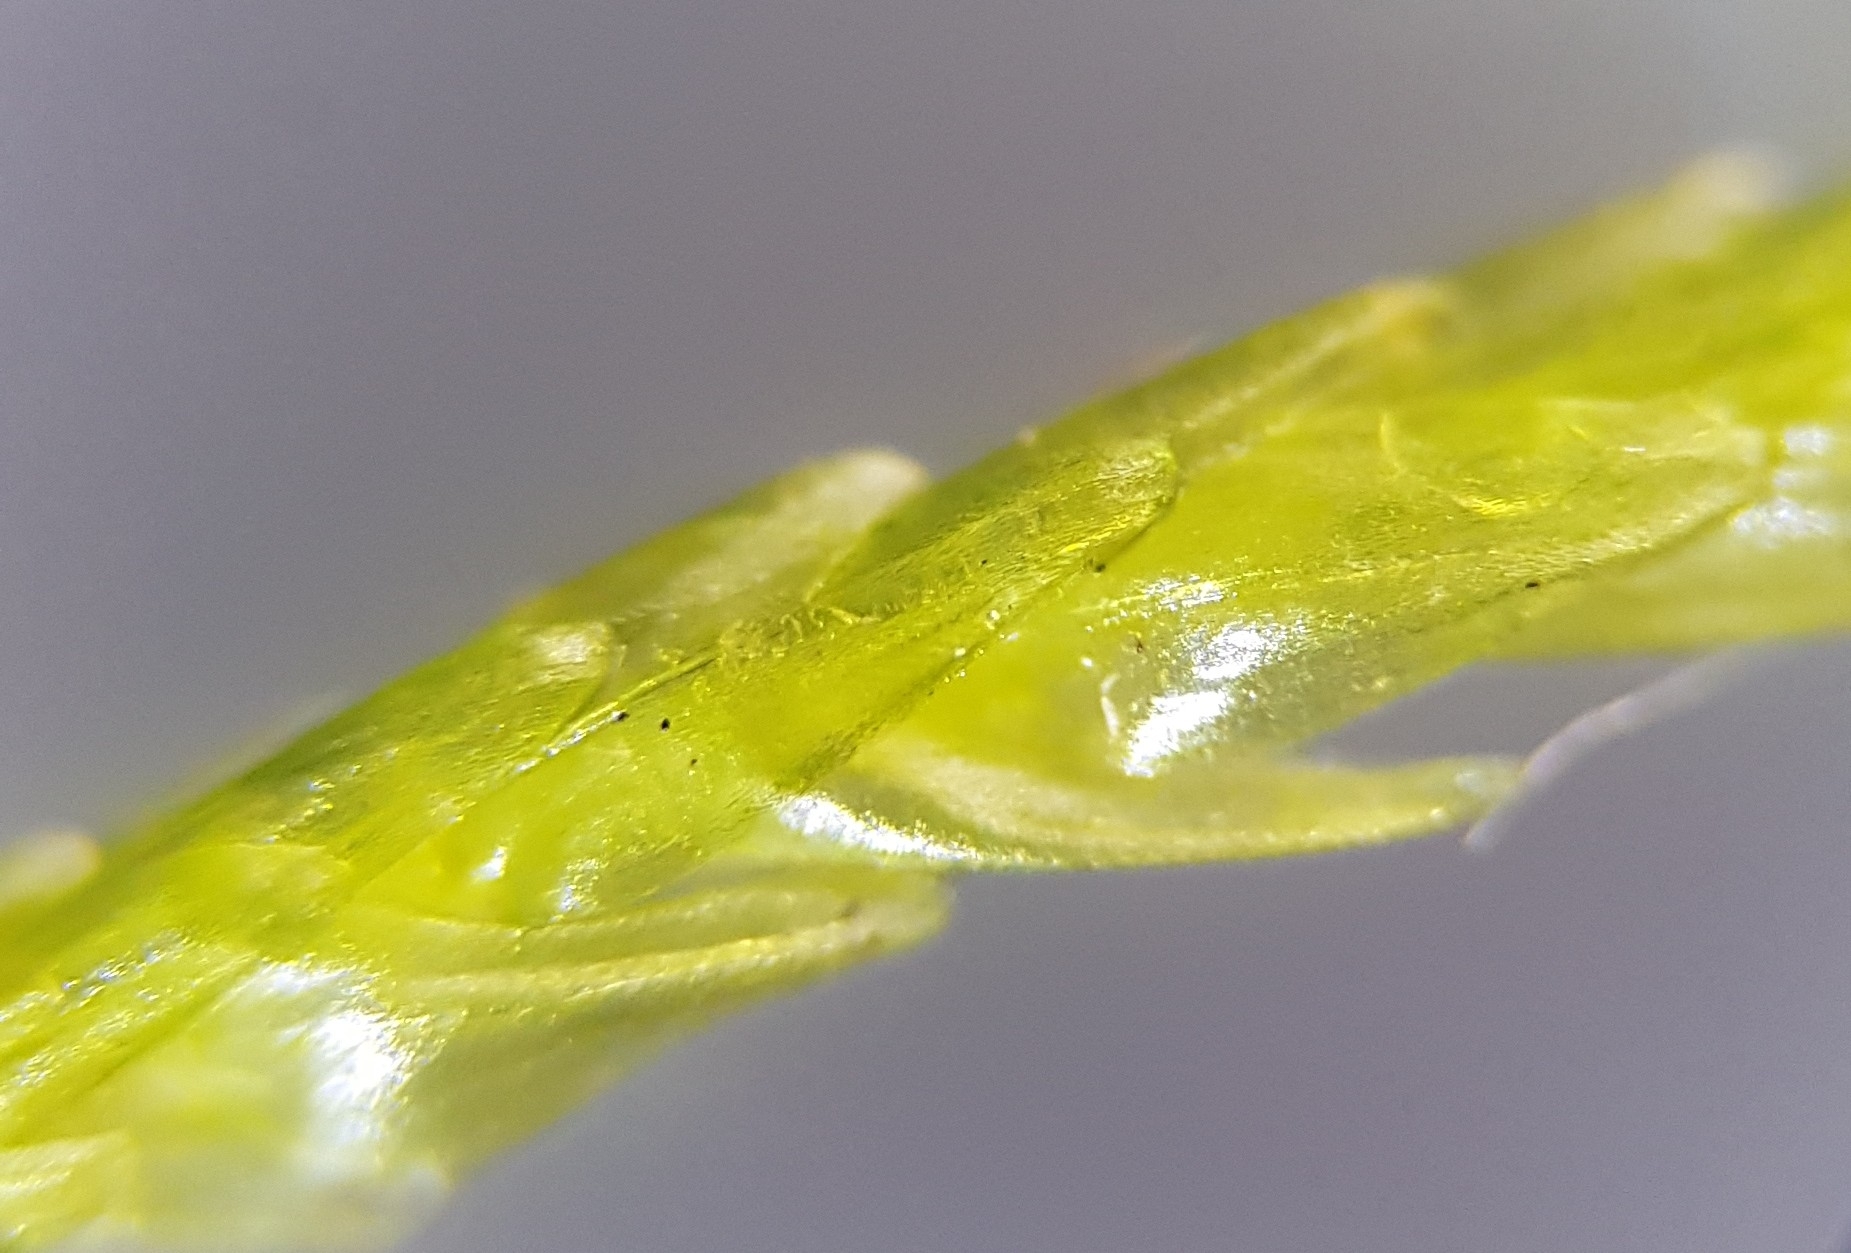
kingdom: Plantae
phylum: Bryophyta
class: Bryopsida
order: Hypnales
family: Calliergonaceae
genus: Straminergon
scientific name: Straminergon stramineum
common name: Straw moss
